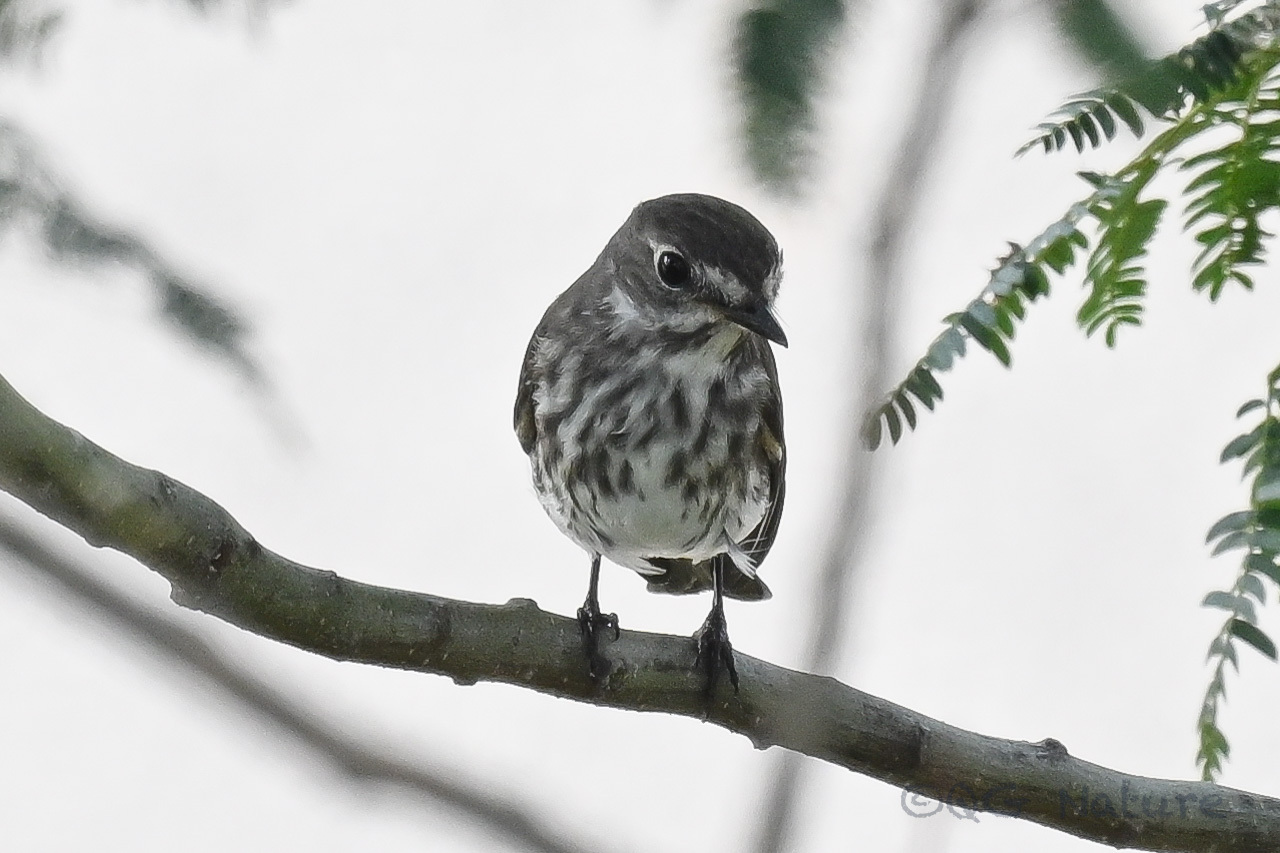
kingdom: Animalia
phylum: Chordata
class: Aves
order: Passeriformes
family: Muscicapidae
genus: Muscicapa
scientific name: Muscicapa griseisticta
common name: Gray-streaked flycatcher
